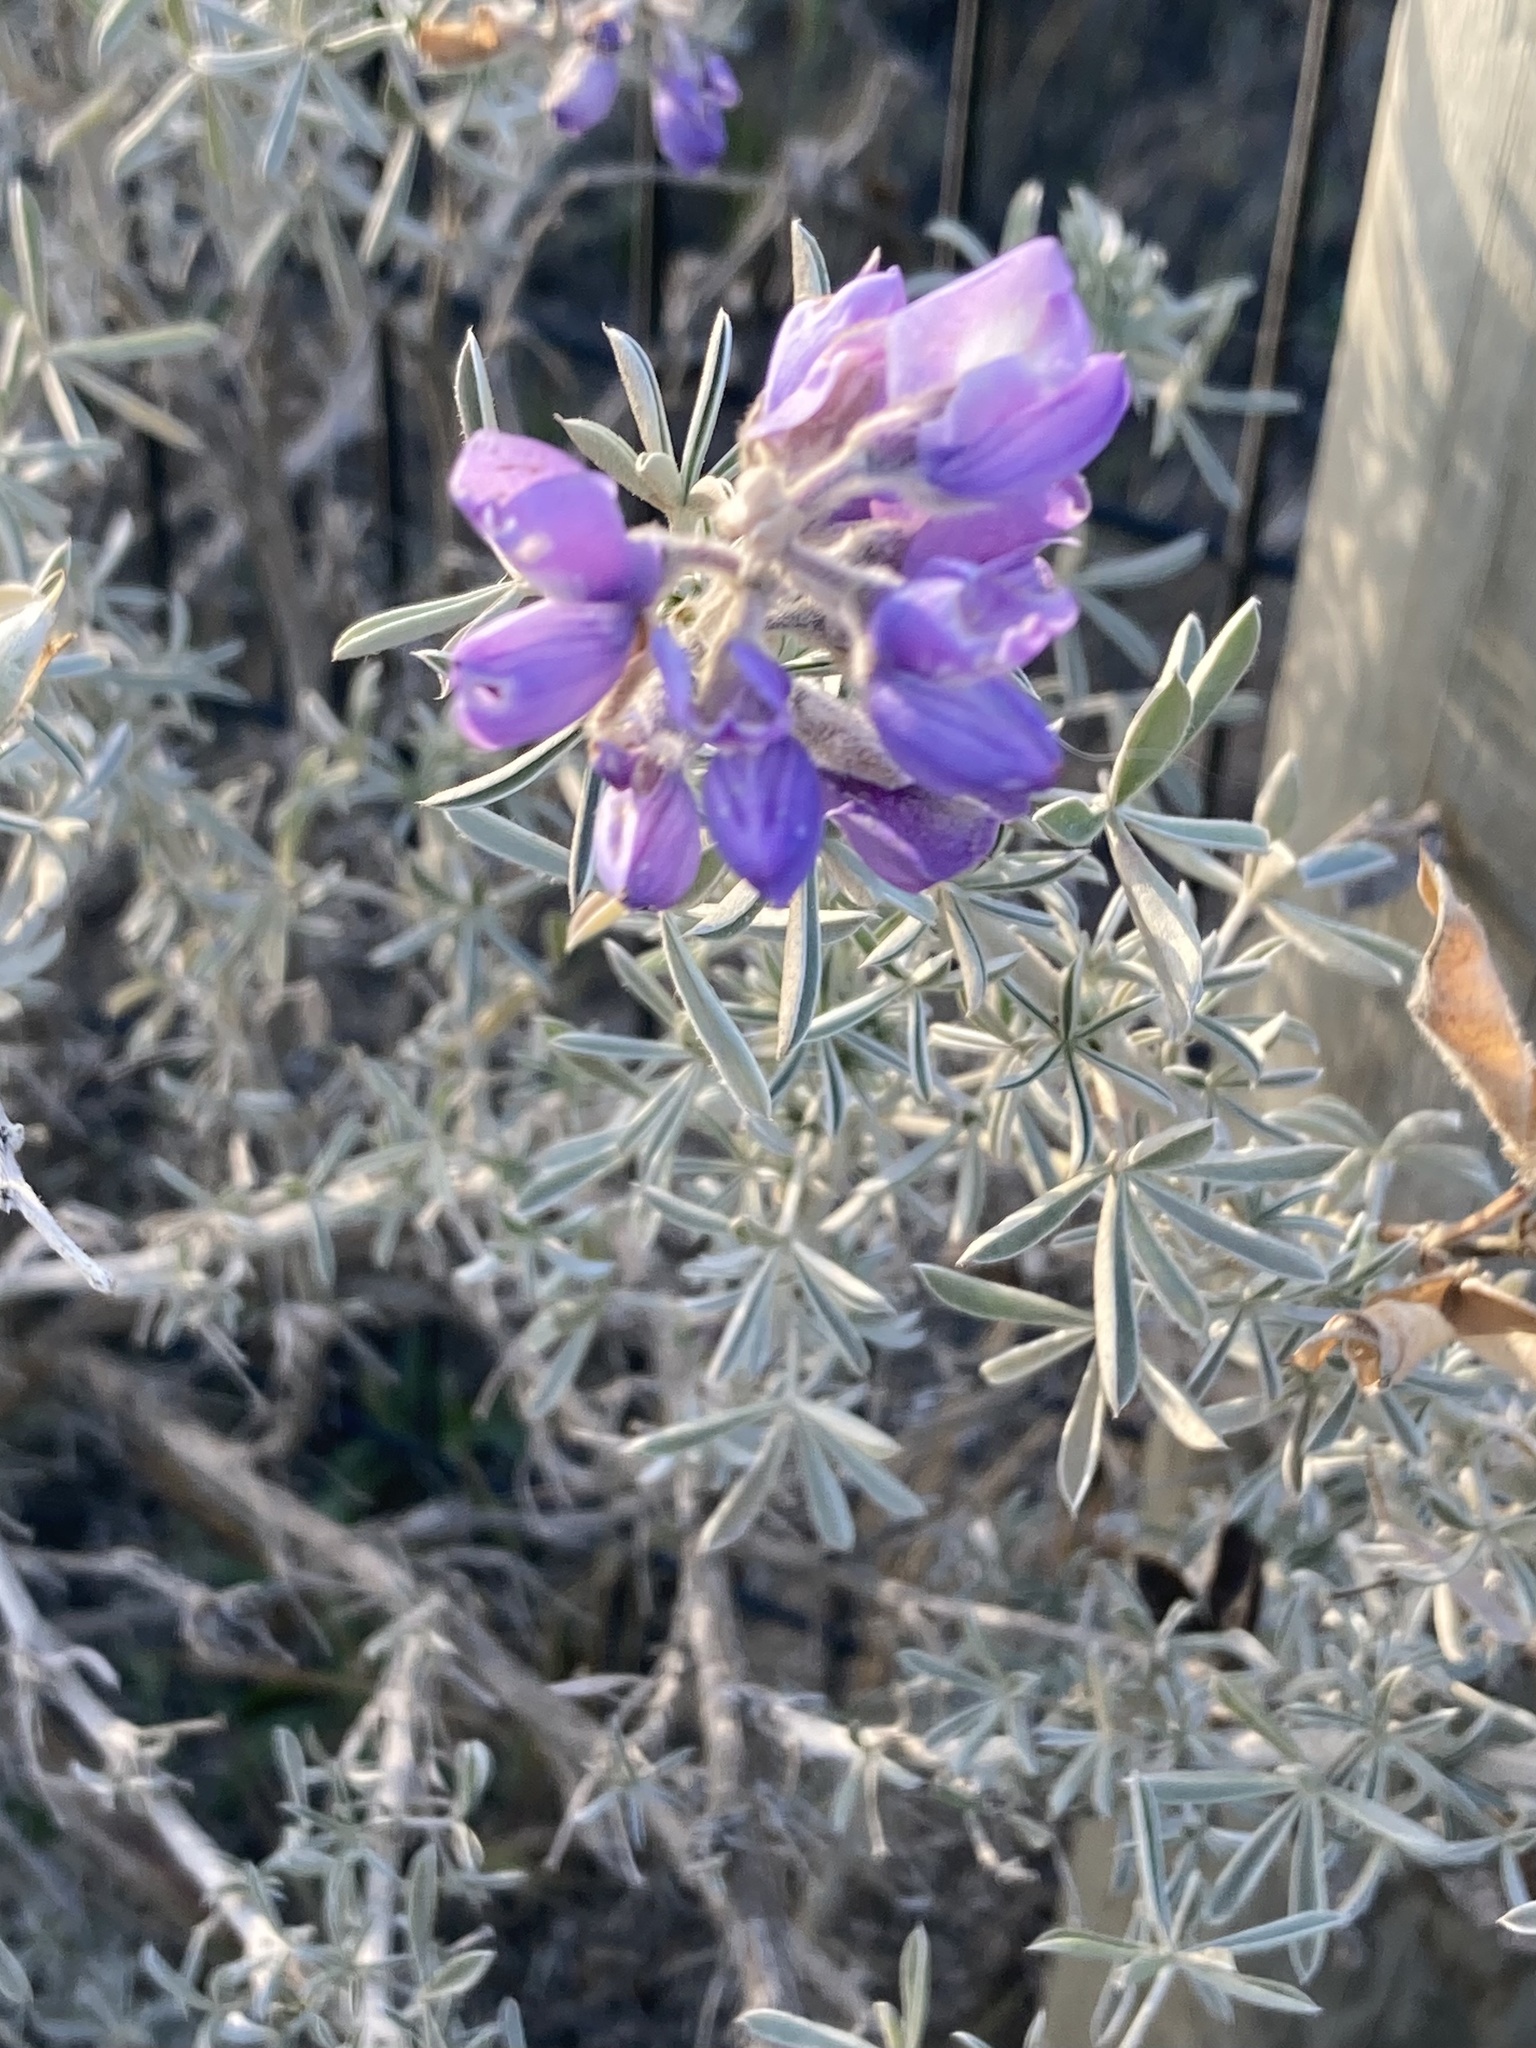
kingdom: Plantae
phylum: Tracheophyta
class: Magnoliopsida
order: Fabales
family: Fabaceae
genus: Lupinus
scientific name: Lupinus chamissonis
